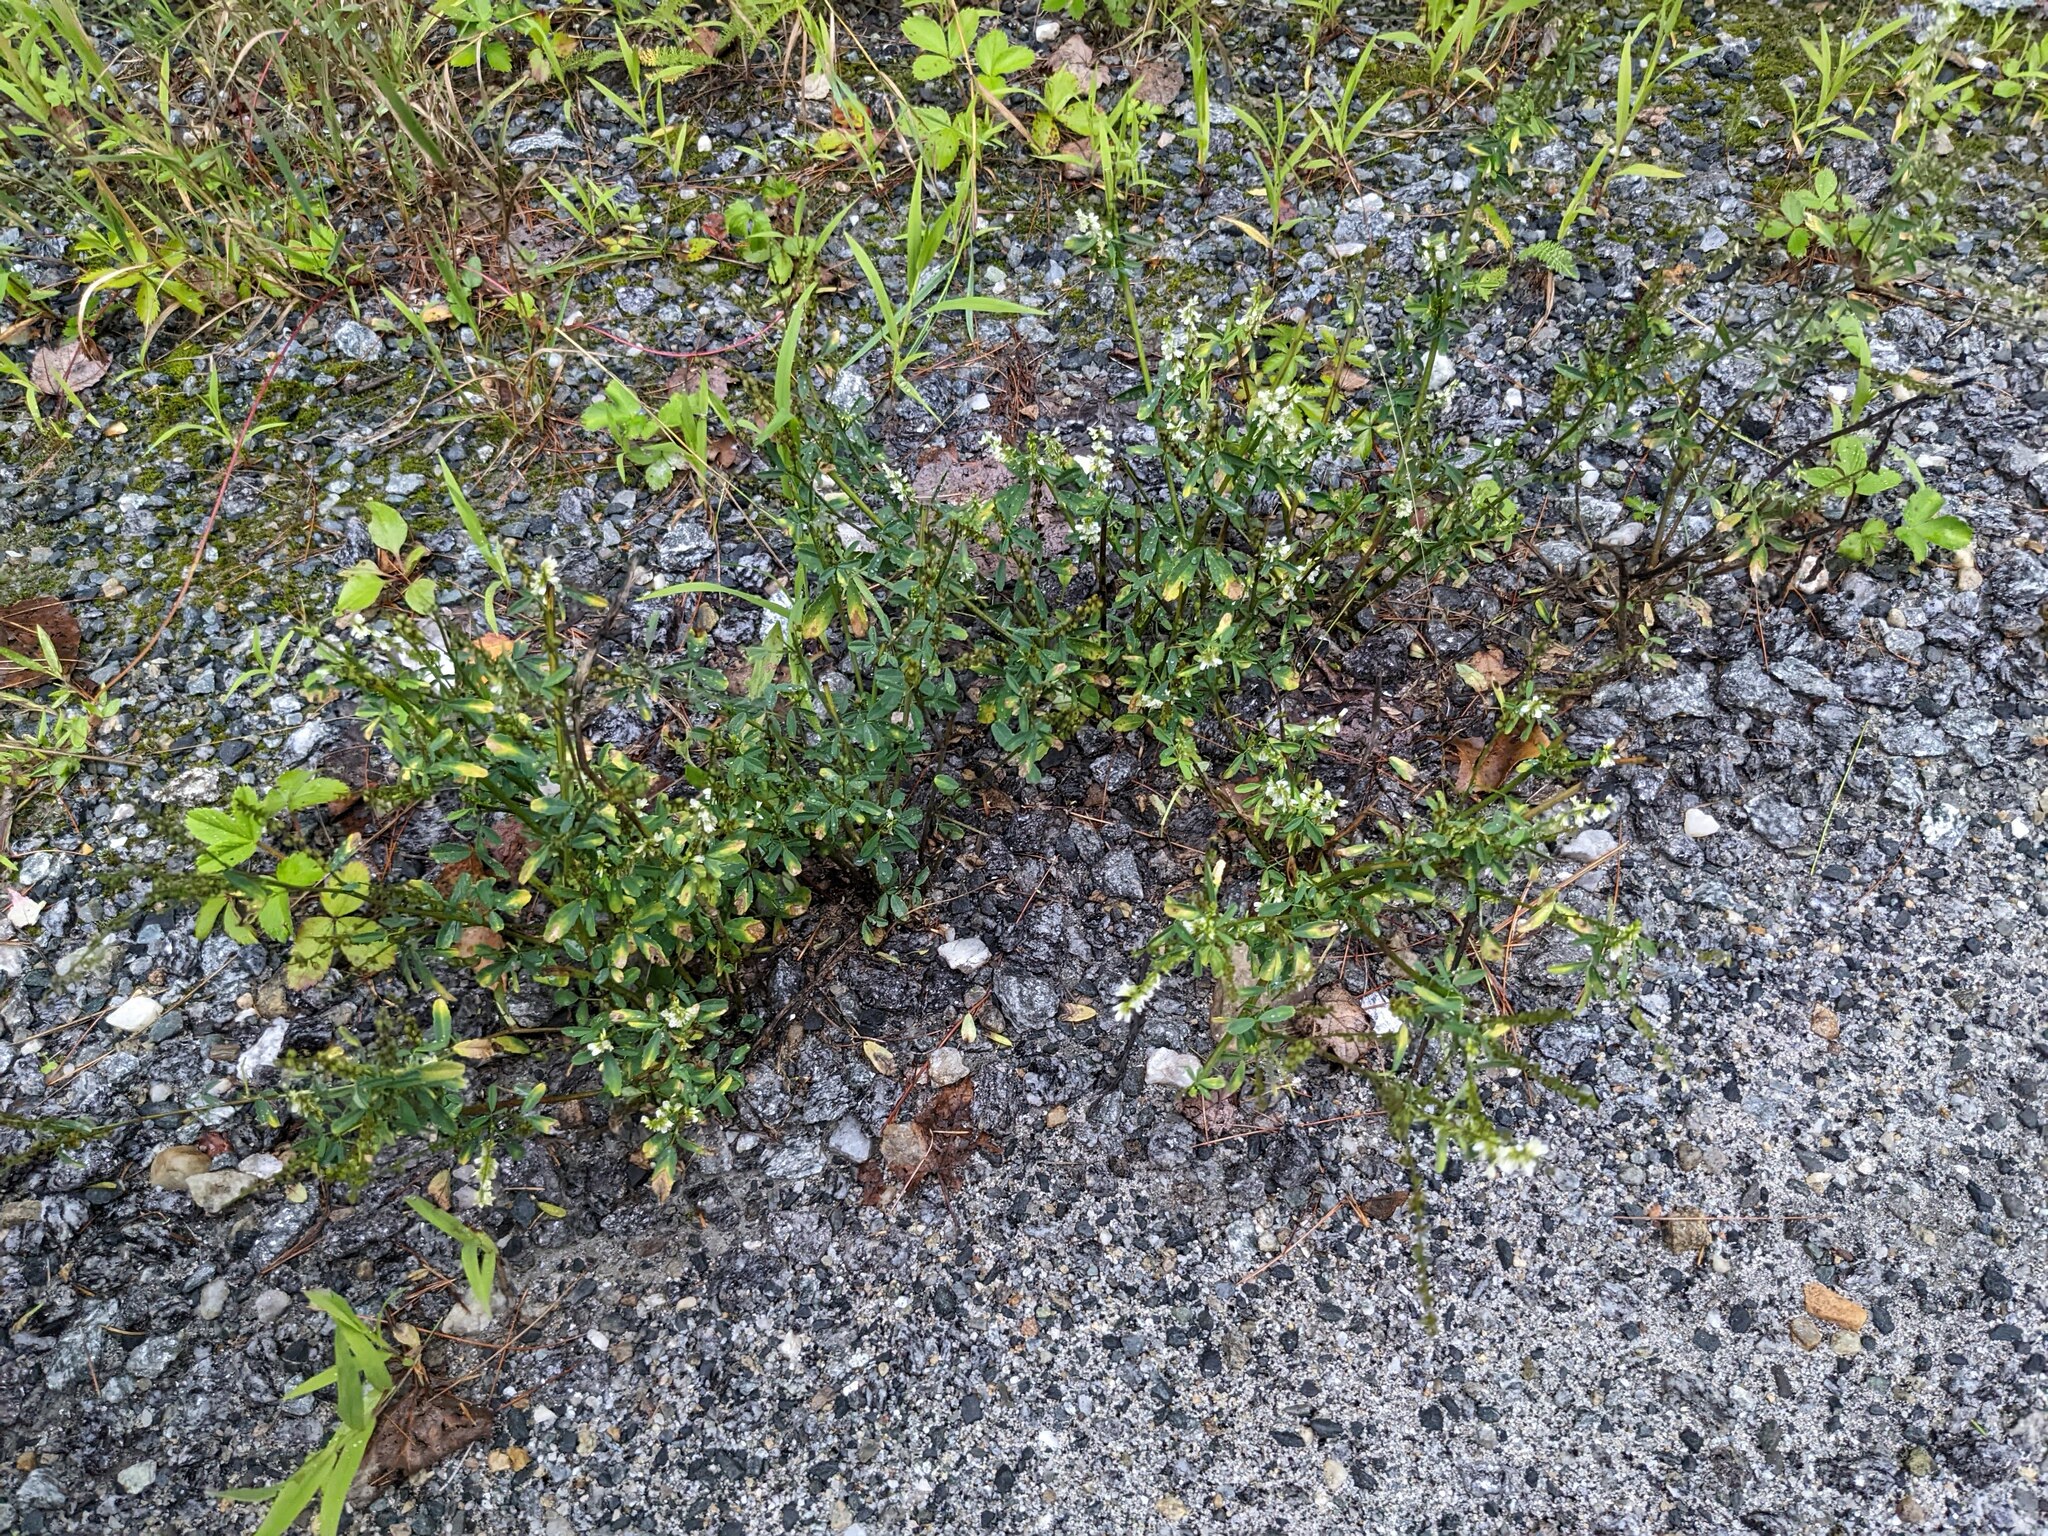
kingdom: Plantae
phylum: Tracheophyta
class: Magnoliopsida
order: Fabales
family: Fabaceae
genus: Melilotus
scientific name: Melilotus albus
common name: White melilot
